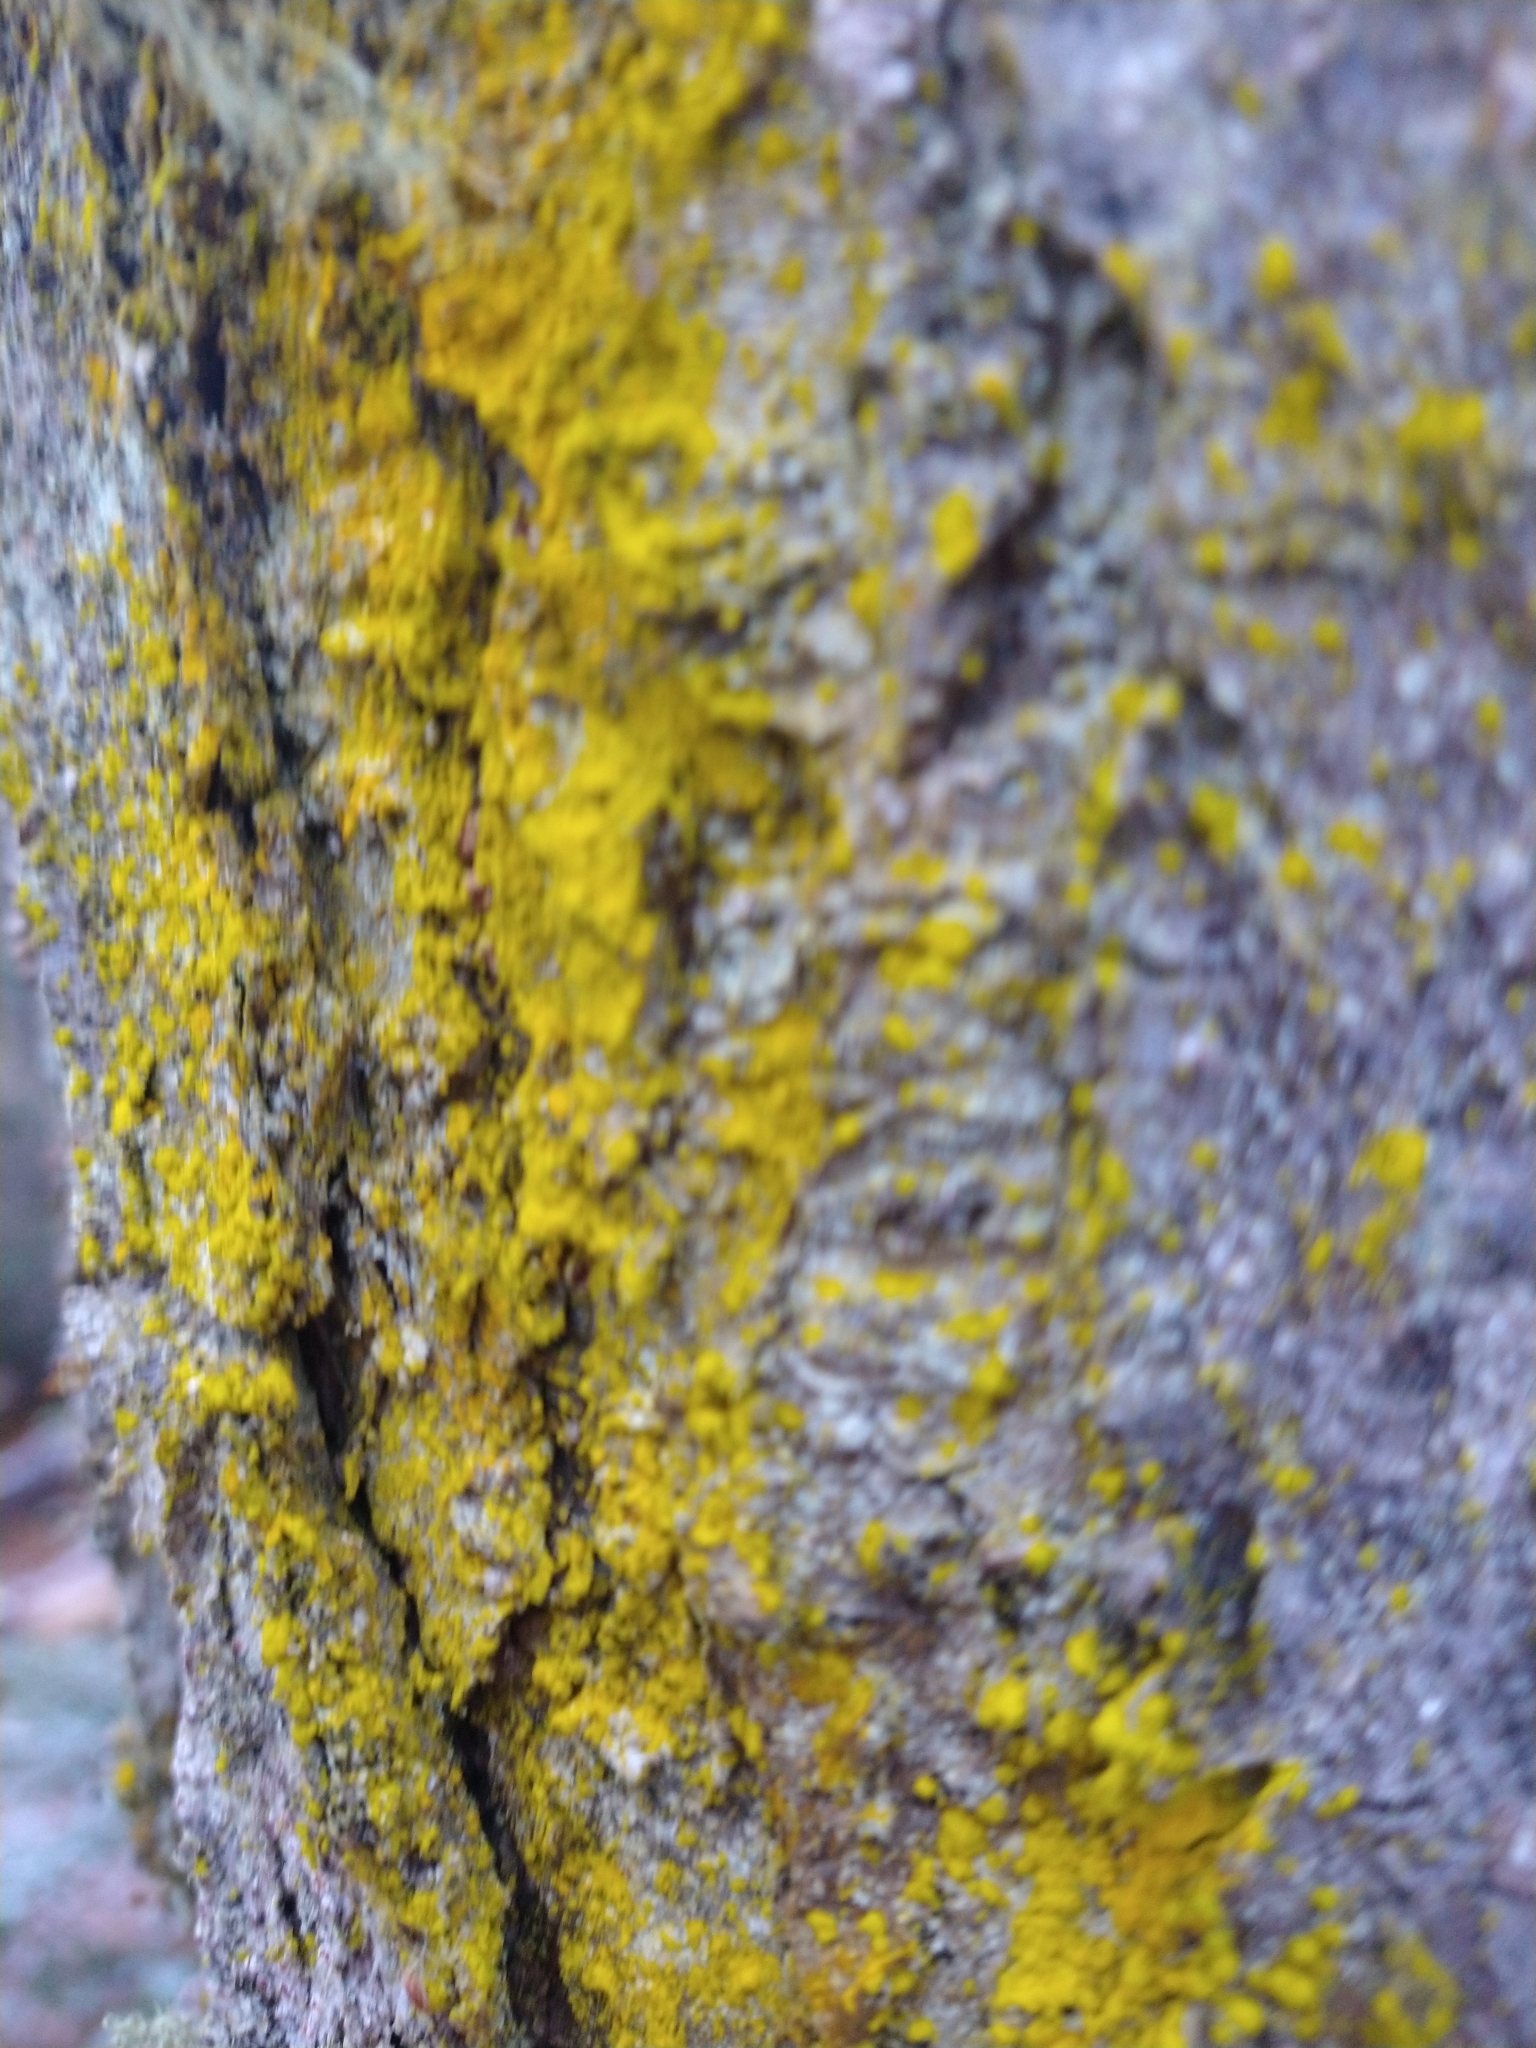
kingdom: Fungi
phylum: Ascomycota
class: Arthoniomycetes
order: Arthoniales
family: Chrysotrichaceae
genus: Chrysothrix
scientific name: Chrysothrix candelaris
